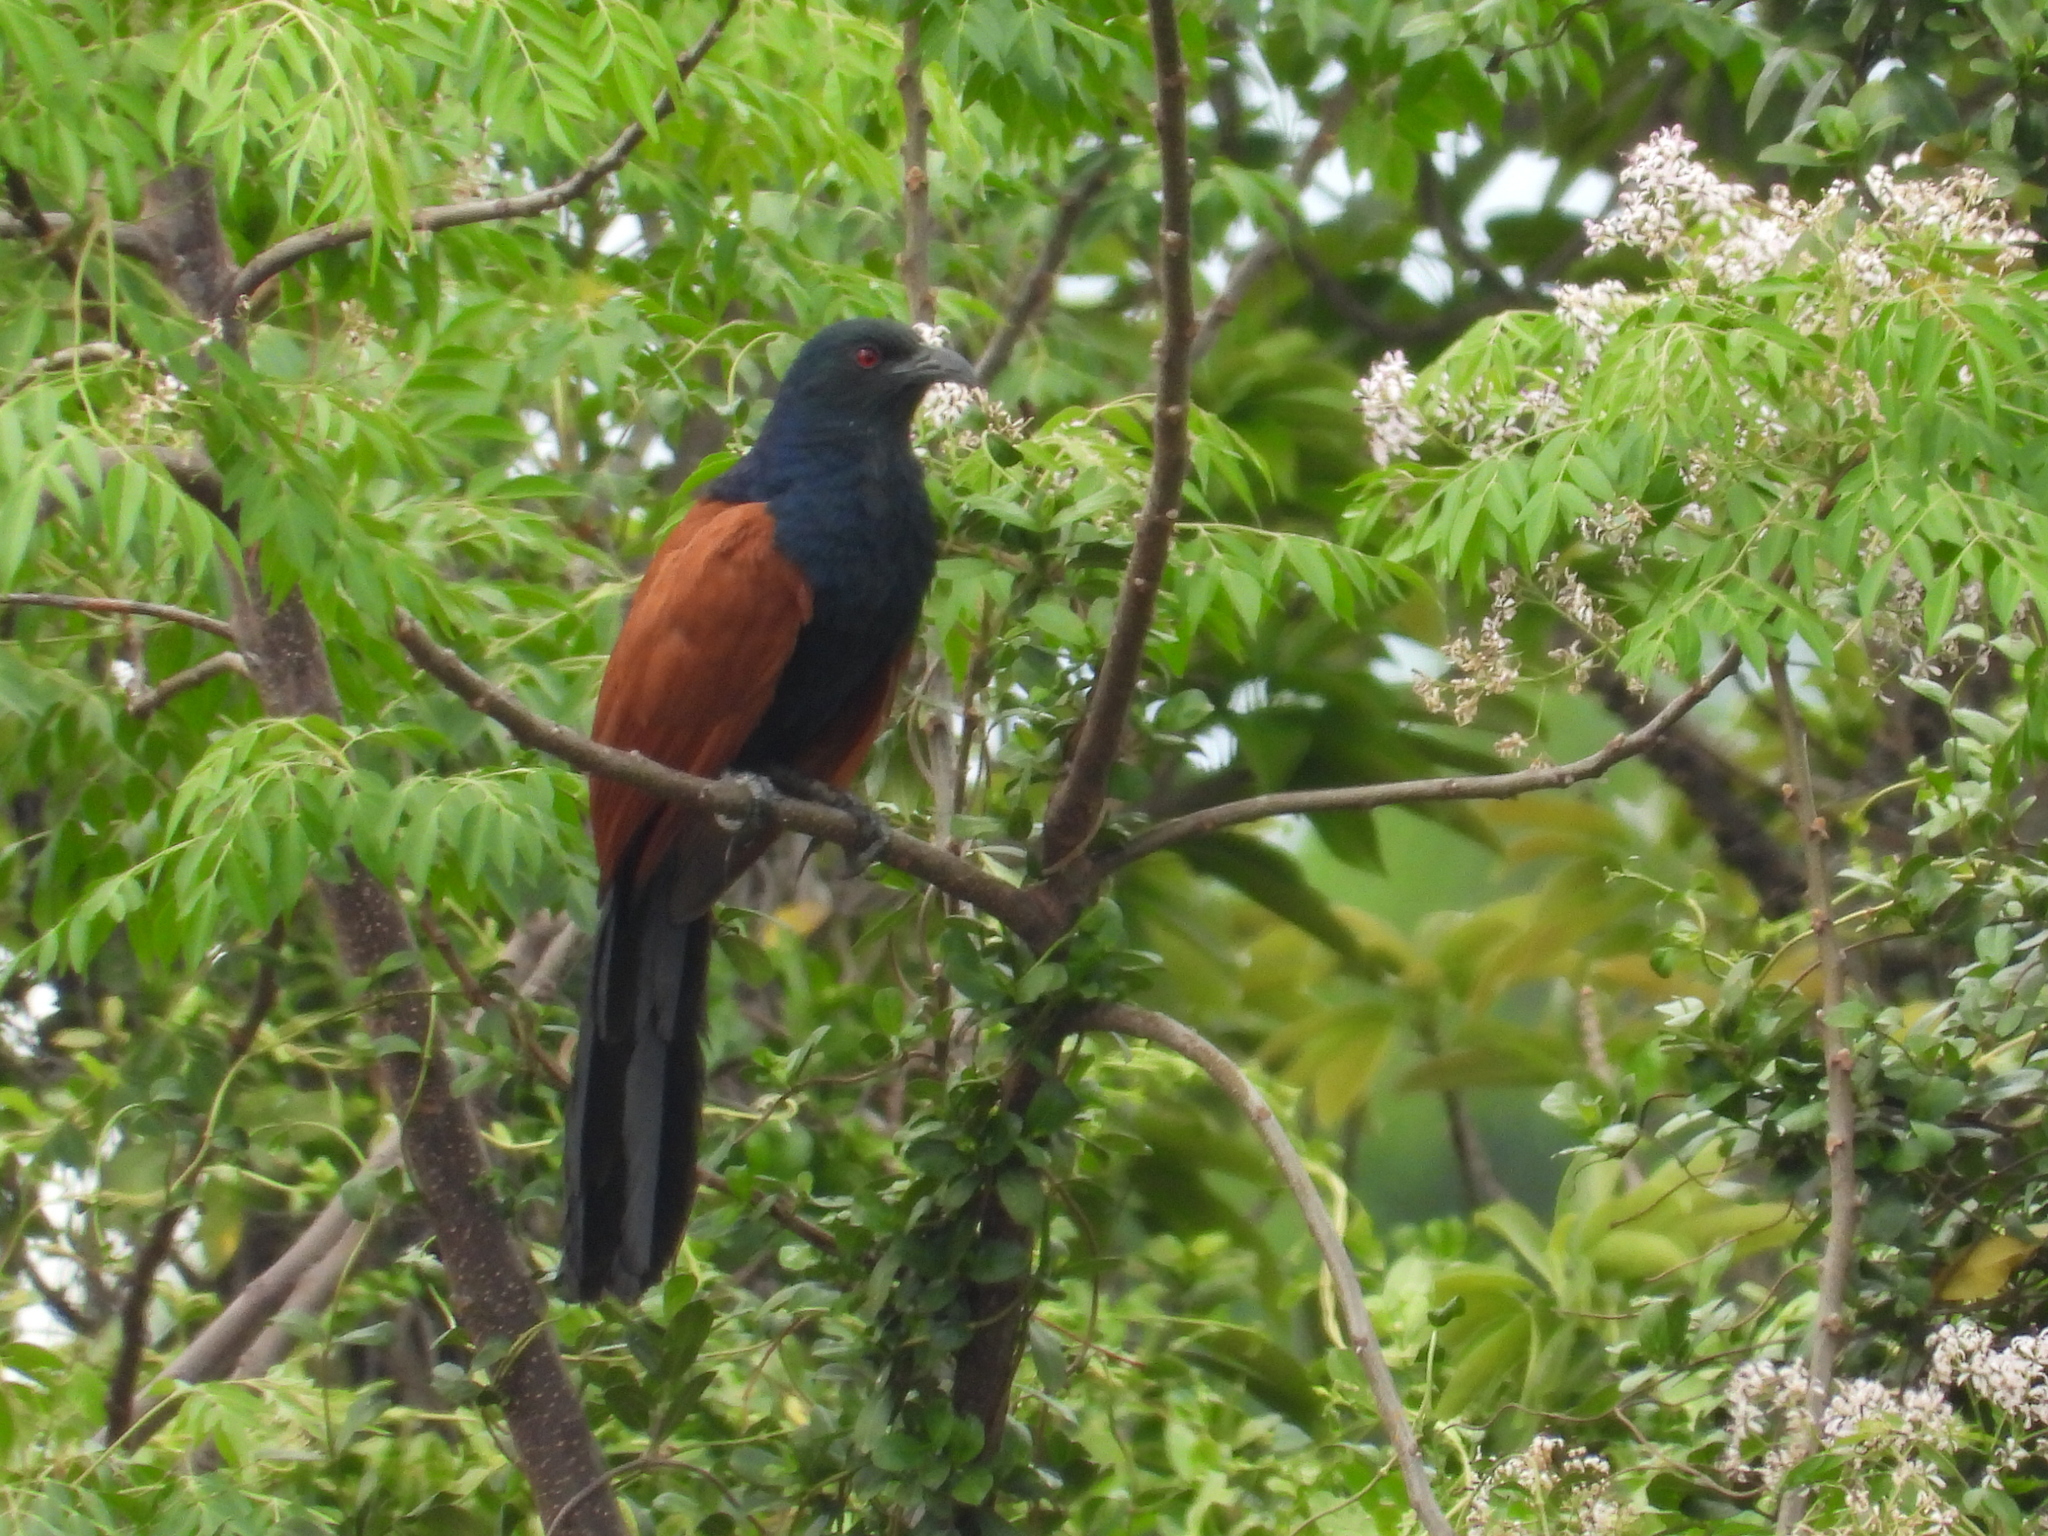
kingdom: Animalia
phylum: Chordata
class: Aves
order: Cuculiformes
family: Cuculidae
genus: Centropus
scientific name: Centropus sinensis
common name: Greater coucal
